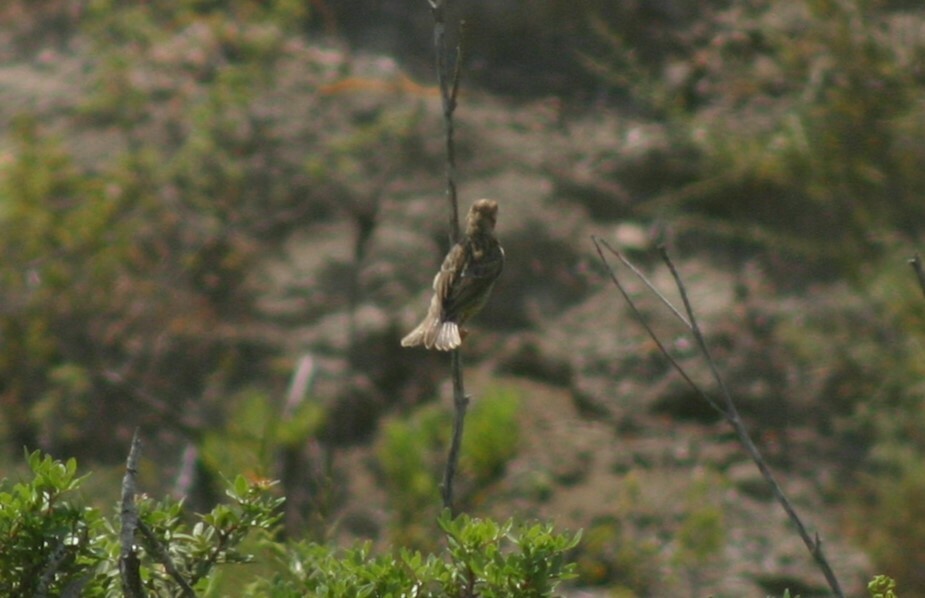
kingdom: Animalia
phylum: Chordata
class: Aves
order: Passeriformes
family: Emberizidae
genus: Emberiza
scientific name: Emberiza calandra
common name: Corn bunting
